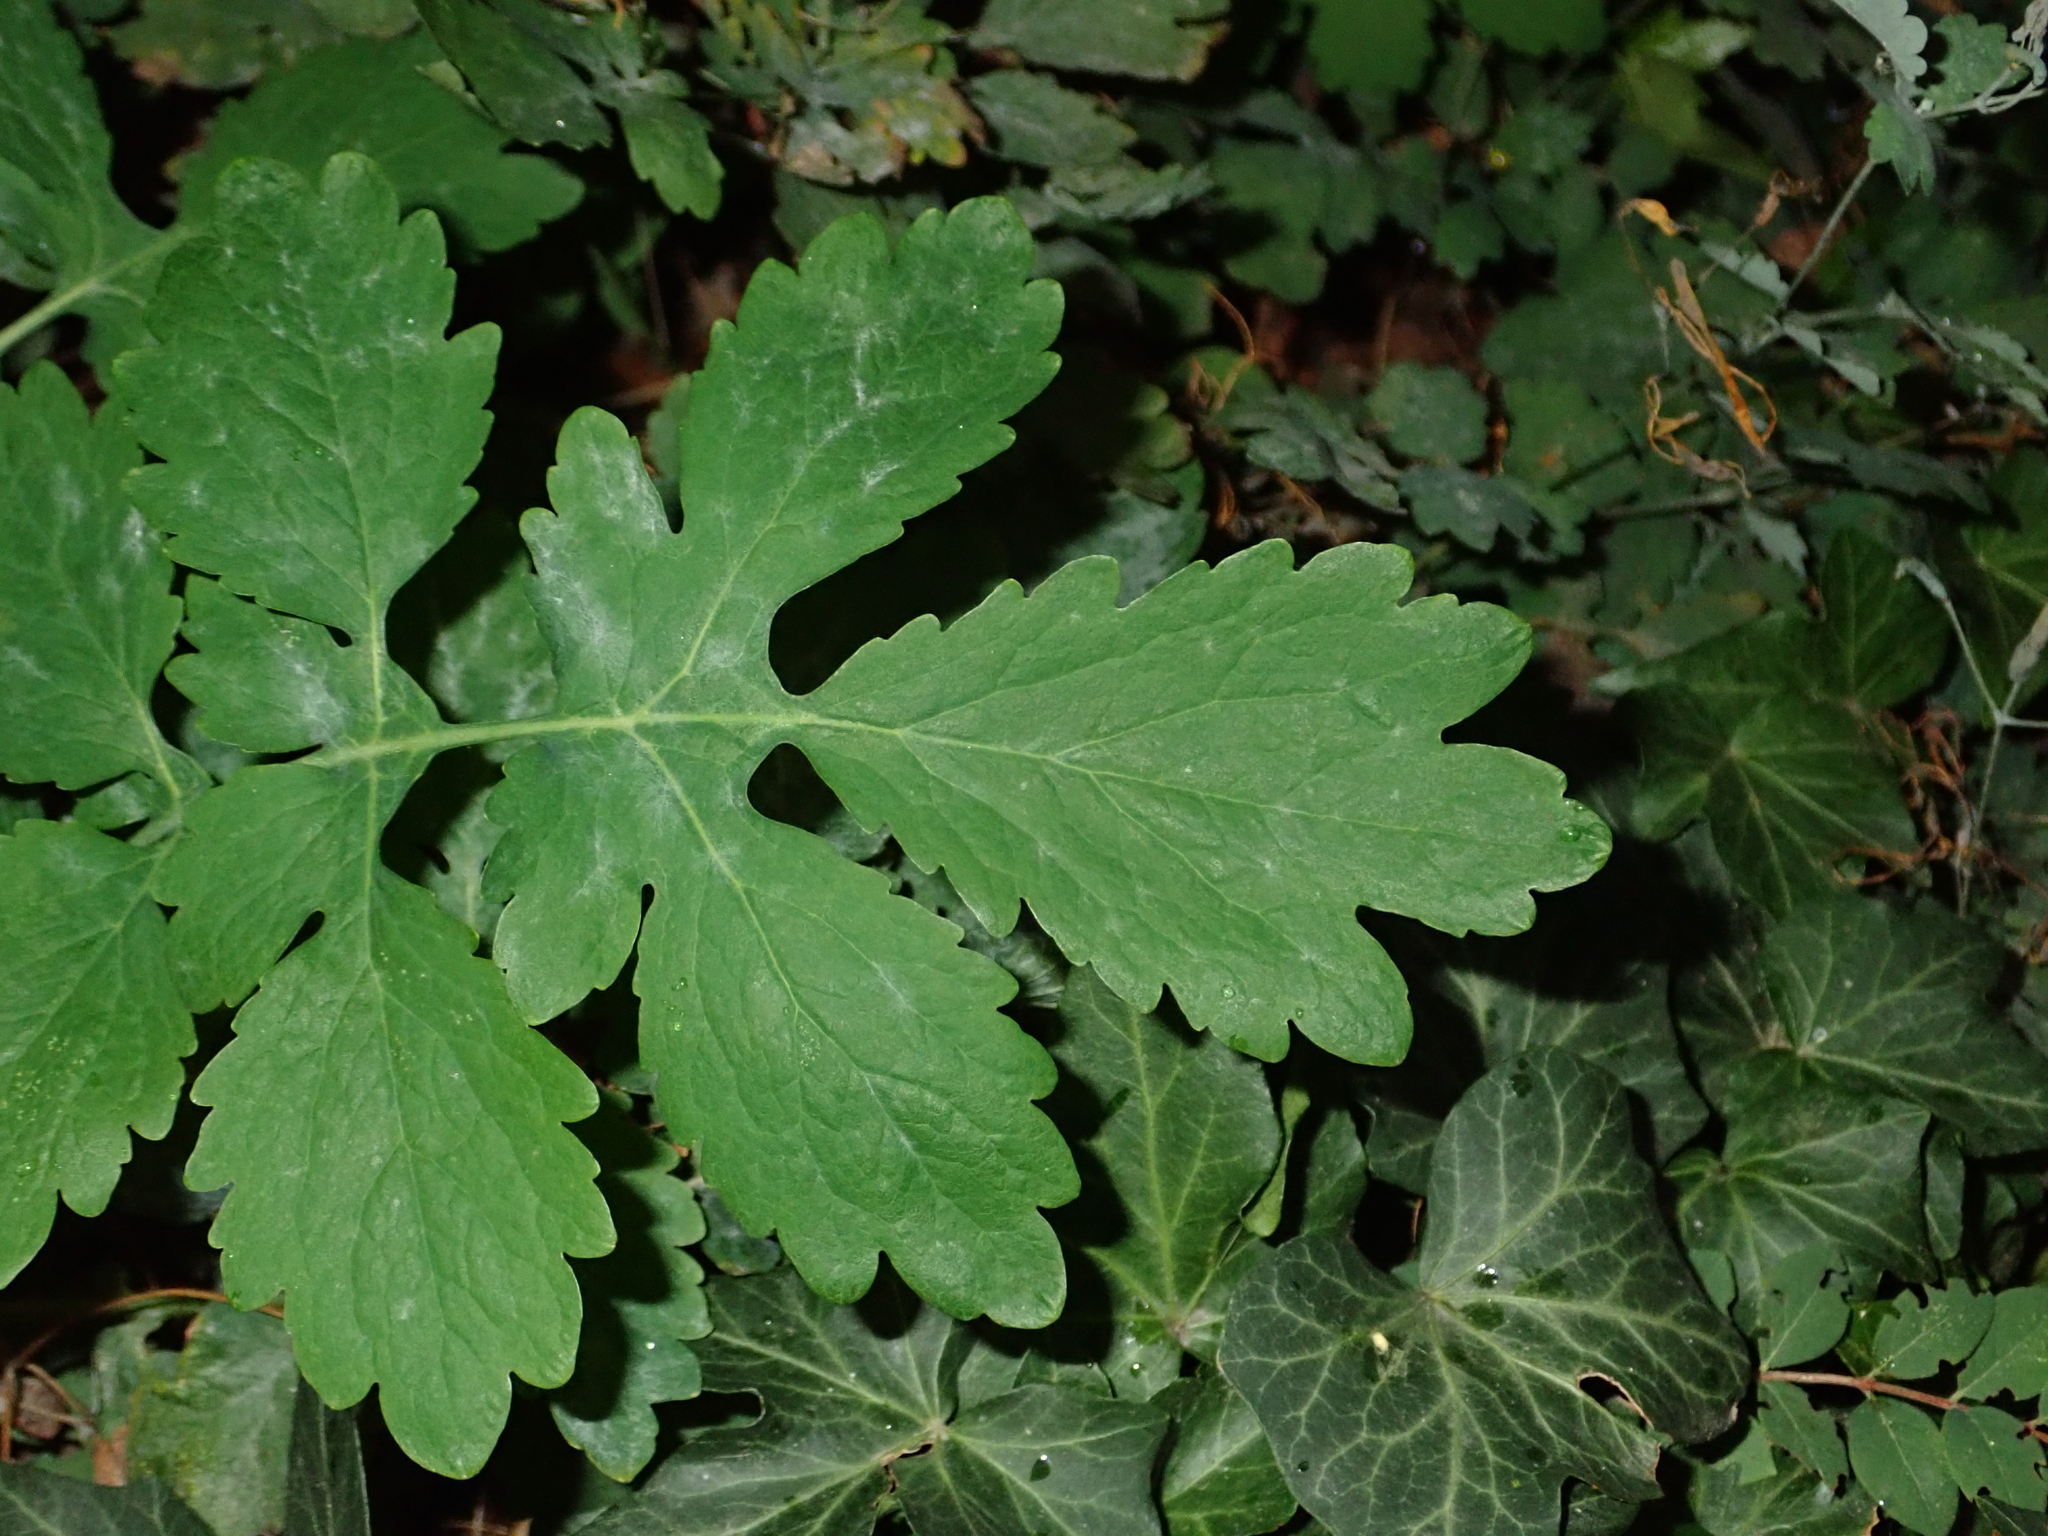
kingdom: Plantae
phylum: Tracheophyta
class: Magnoliopsida
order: Ranunculales
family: Papaveraceae
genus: Chelidonium
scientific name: Chelidonium majus
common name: Greater celandine
